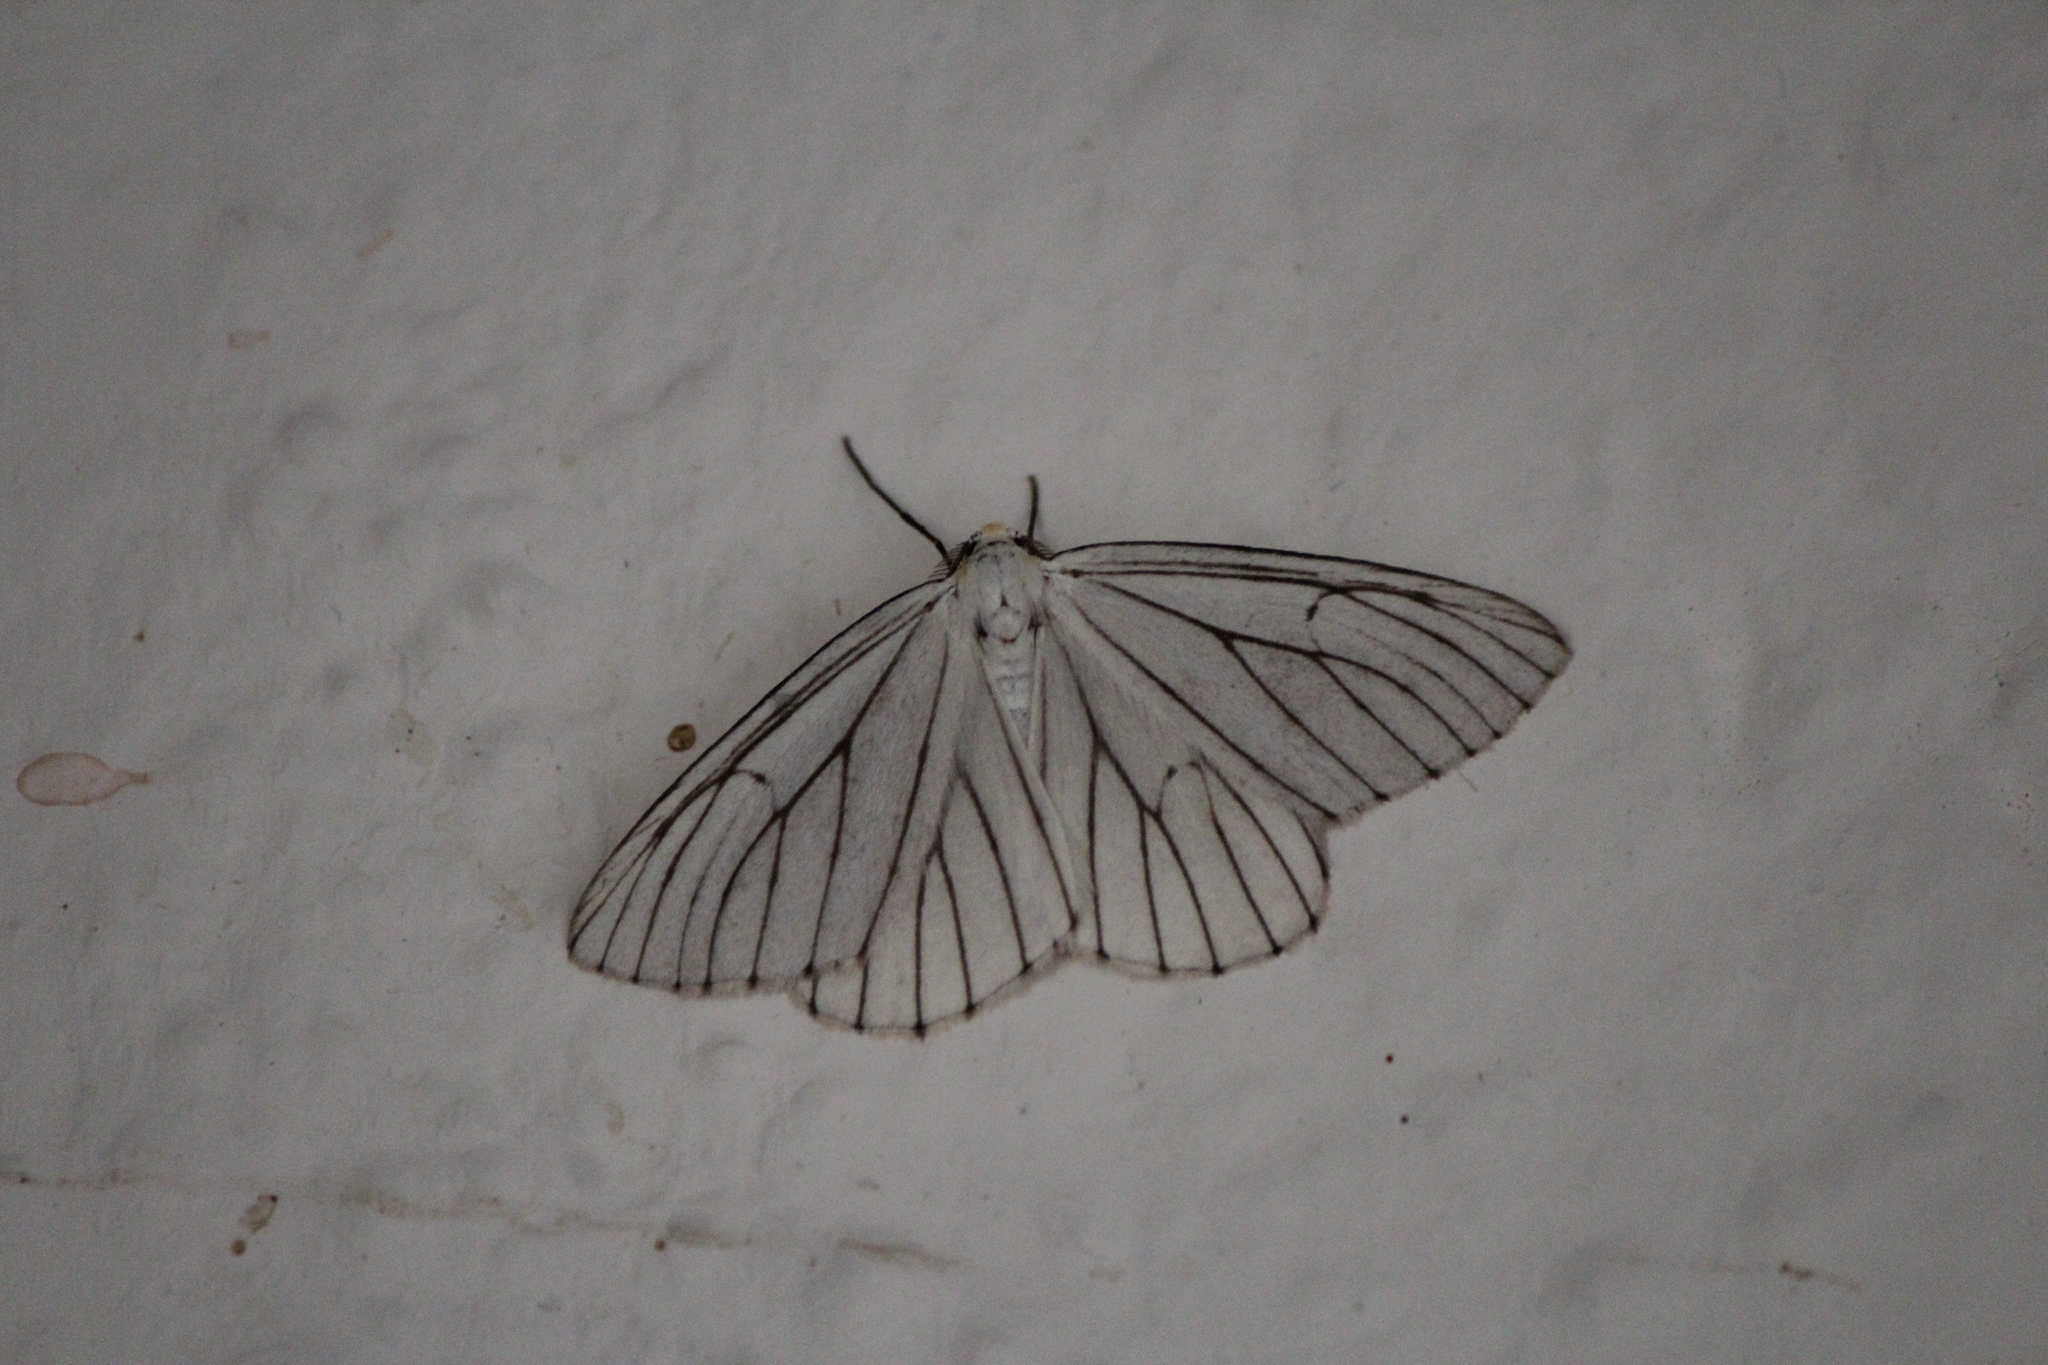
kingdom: Animalia
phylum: Arthropoda
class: Insecta
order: Lepidoptera
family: Geometridae
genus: Neuromelia
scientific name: Neuromelia selectata
